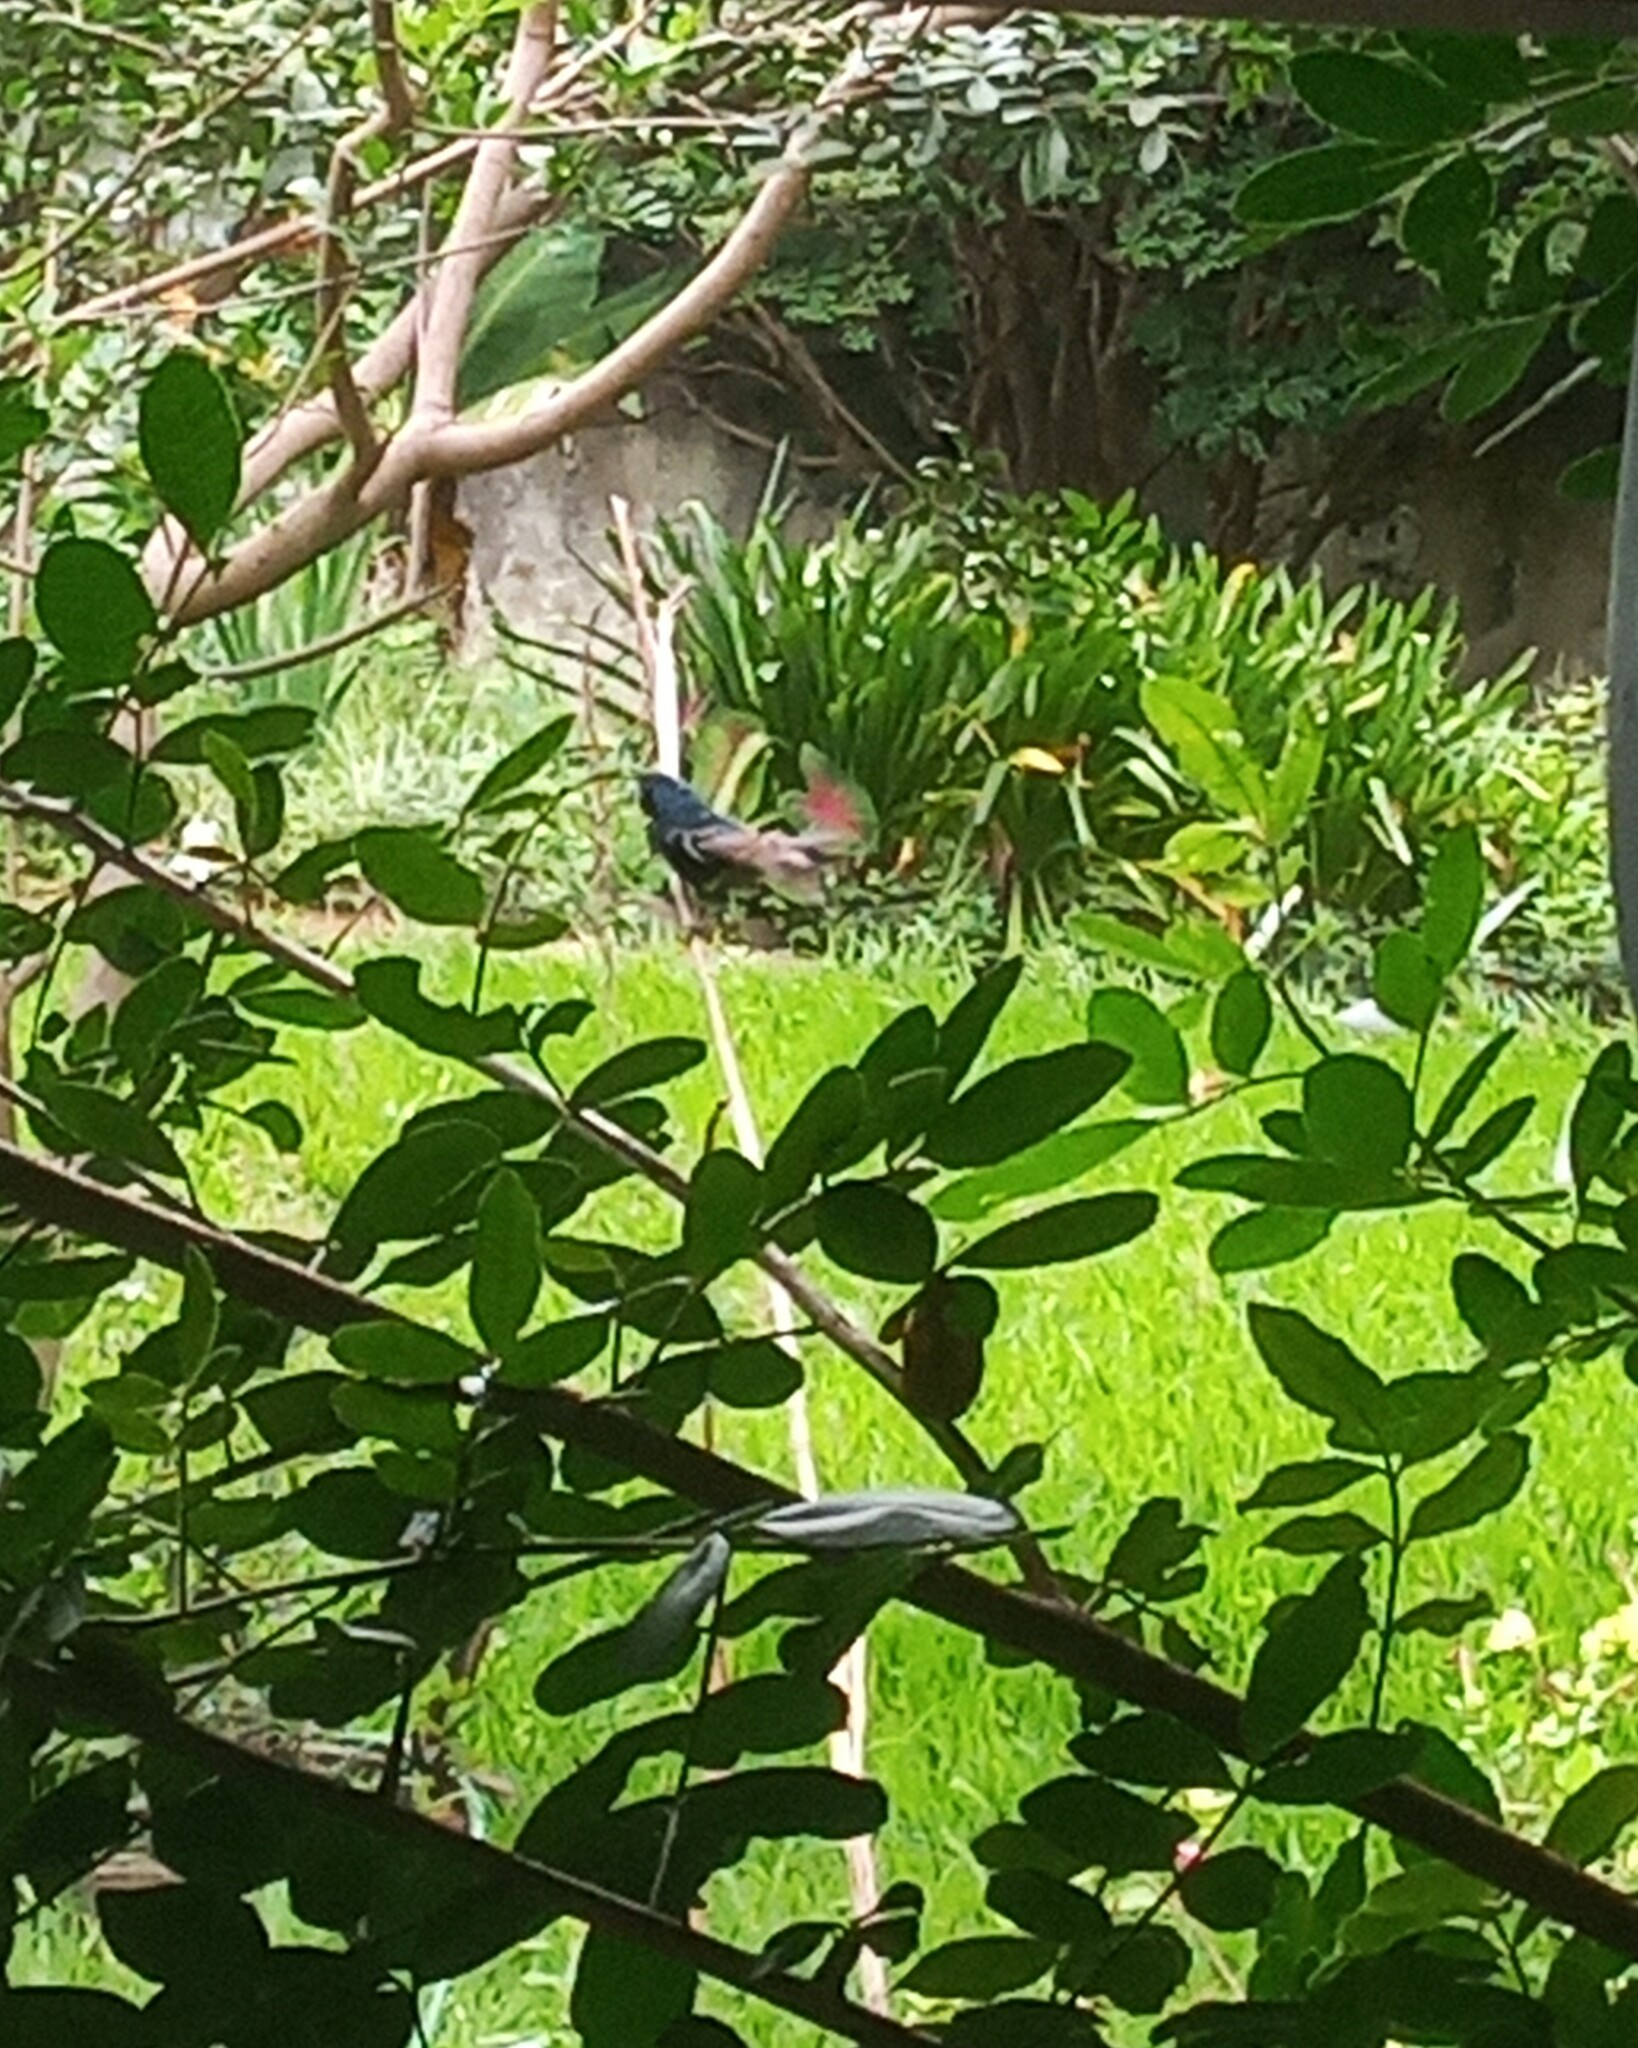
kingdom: Animalia
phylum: Chordata
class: Aves
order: Passeriformes
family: Thraupidae
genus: Volatinia
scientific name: Volatinia jacarina
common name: Blue-black grassquit
